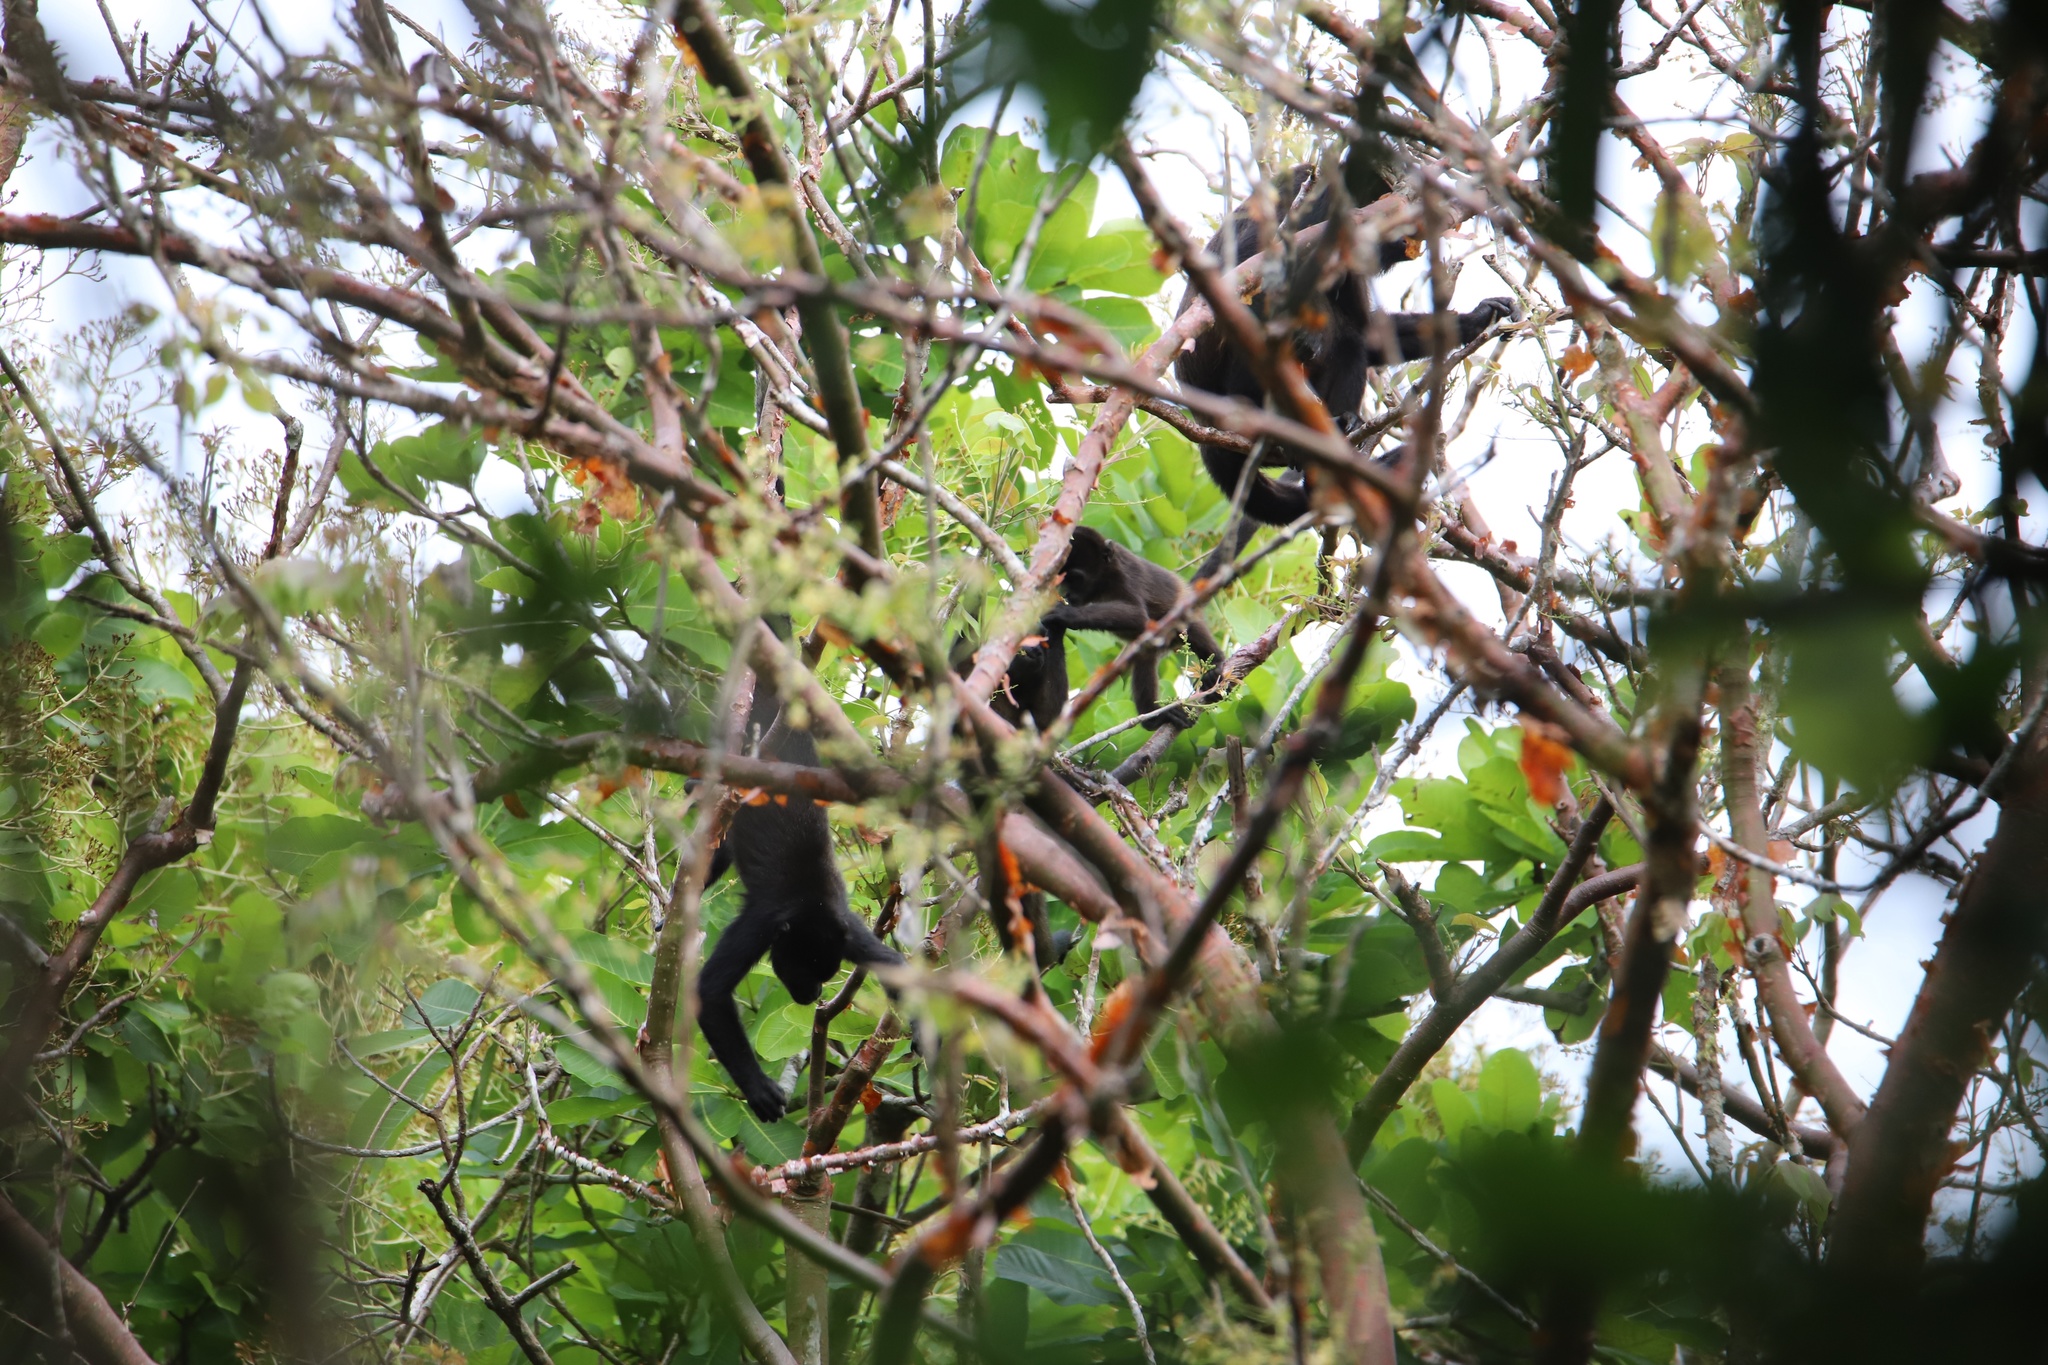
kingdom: Animalia
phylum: Chordata
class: Mammalia
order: Primates
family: Atelidae
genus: Alouatta
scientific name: Alouatta palliata
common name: Mantled howler
